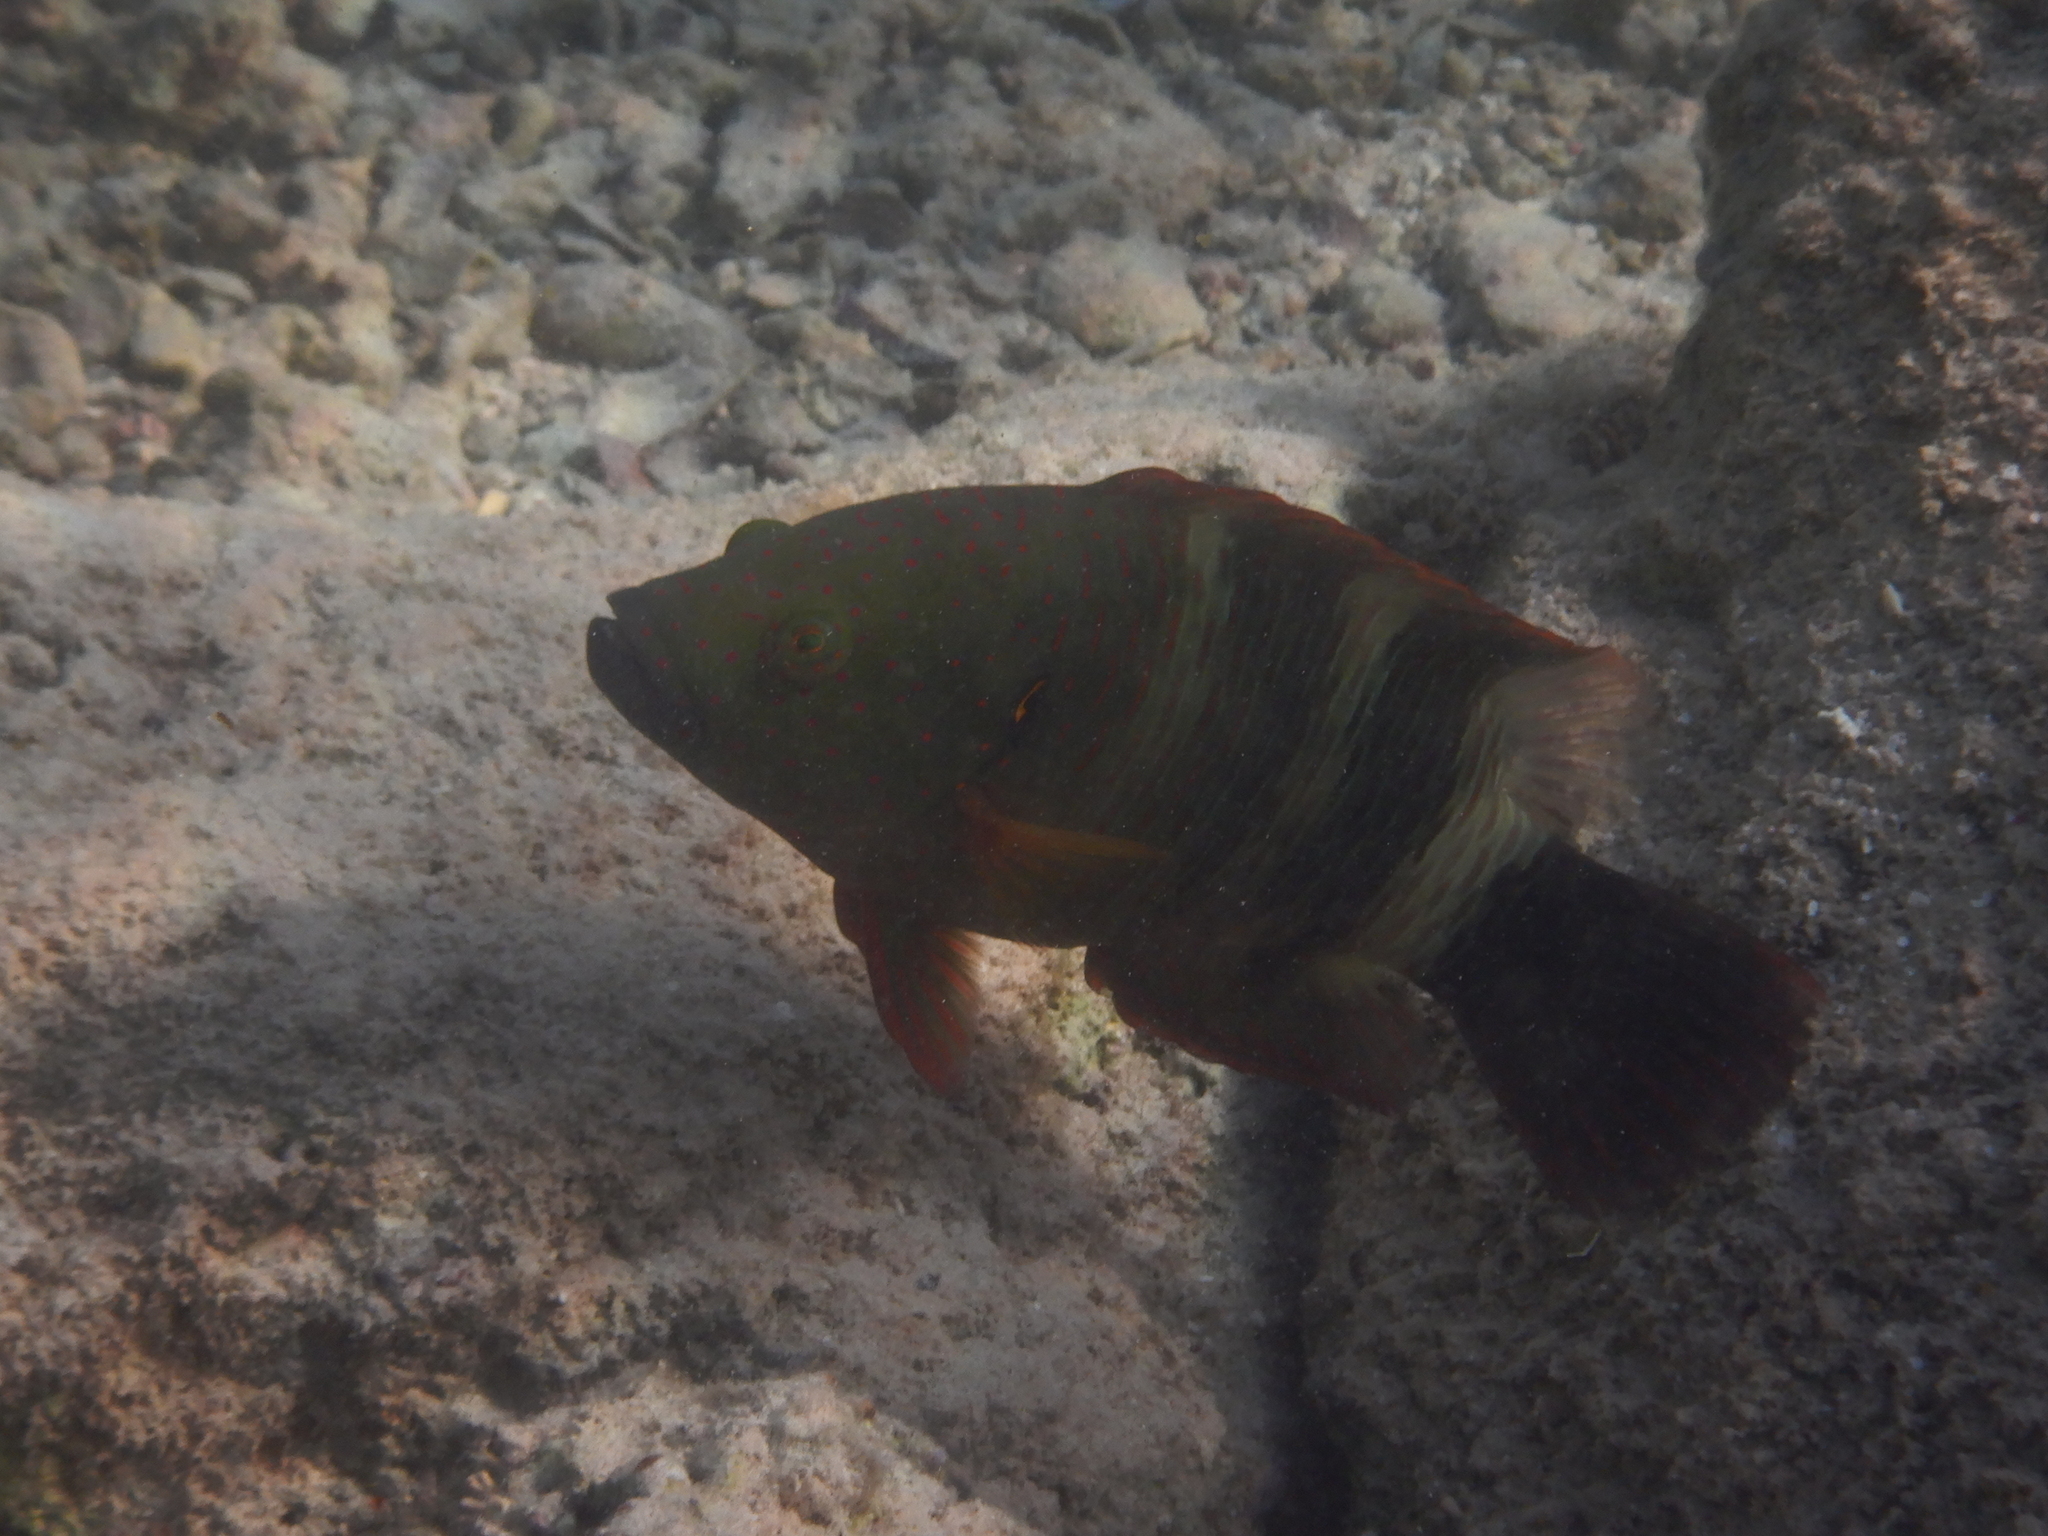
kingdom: Animalia
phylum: Chordata
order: Perciformes
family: Labridae
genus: Cheilinus
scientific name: Cheilinus lunulatus
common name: Broomtail wrasse
